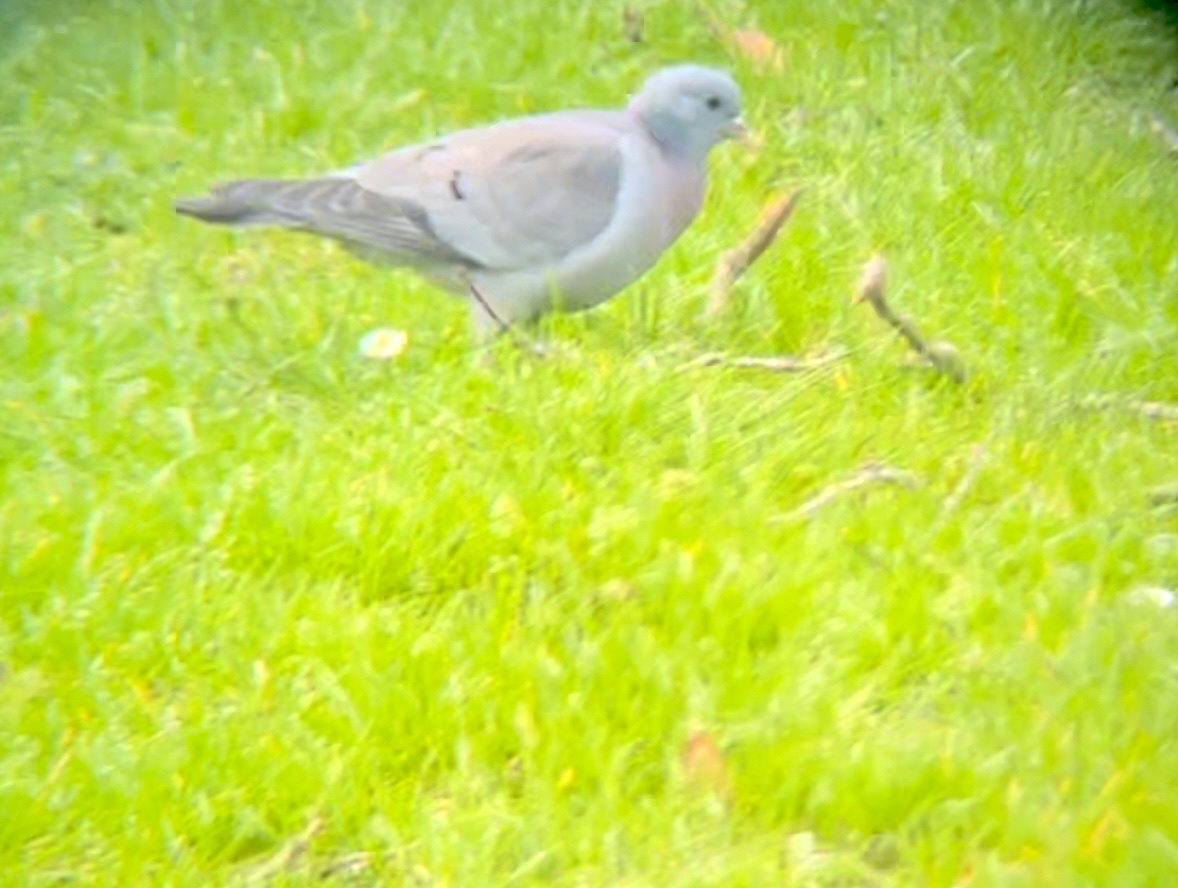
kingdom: Animalia
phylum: Chordata
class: Aves
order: Columbiformes
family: Columbidae
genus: Columba
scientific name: Columba oenas
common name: Stock dove
